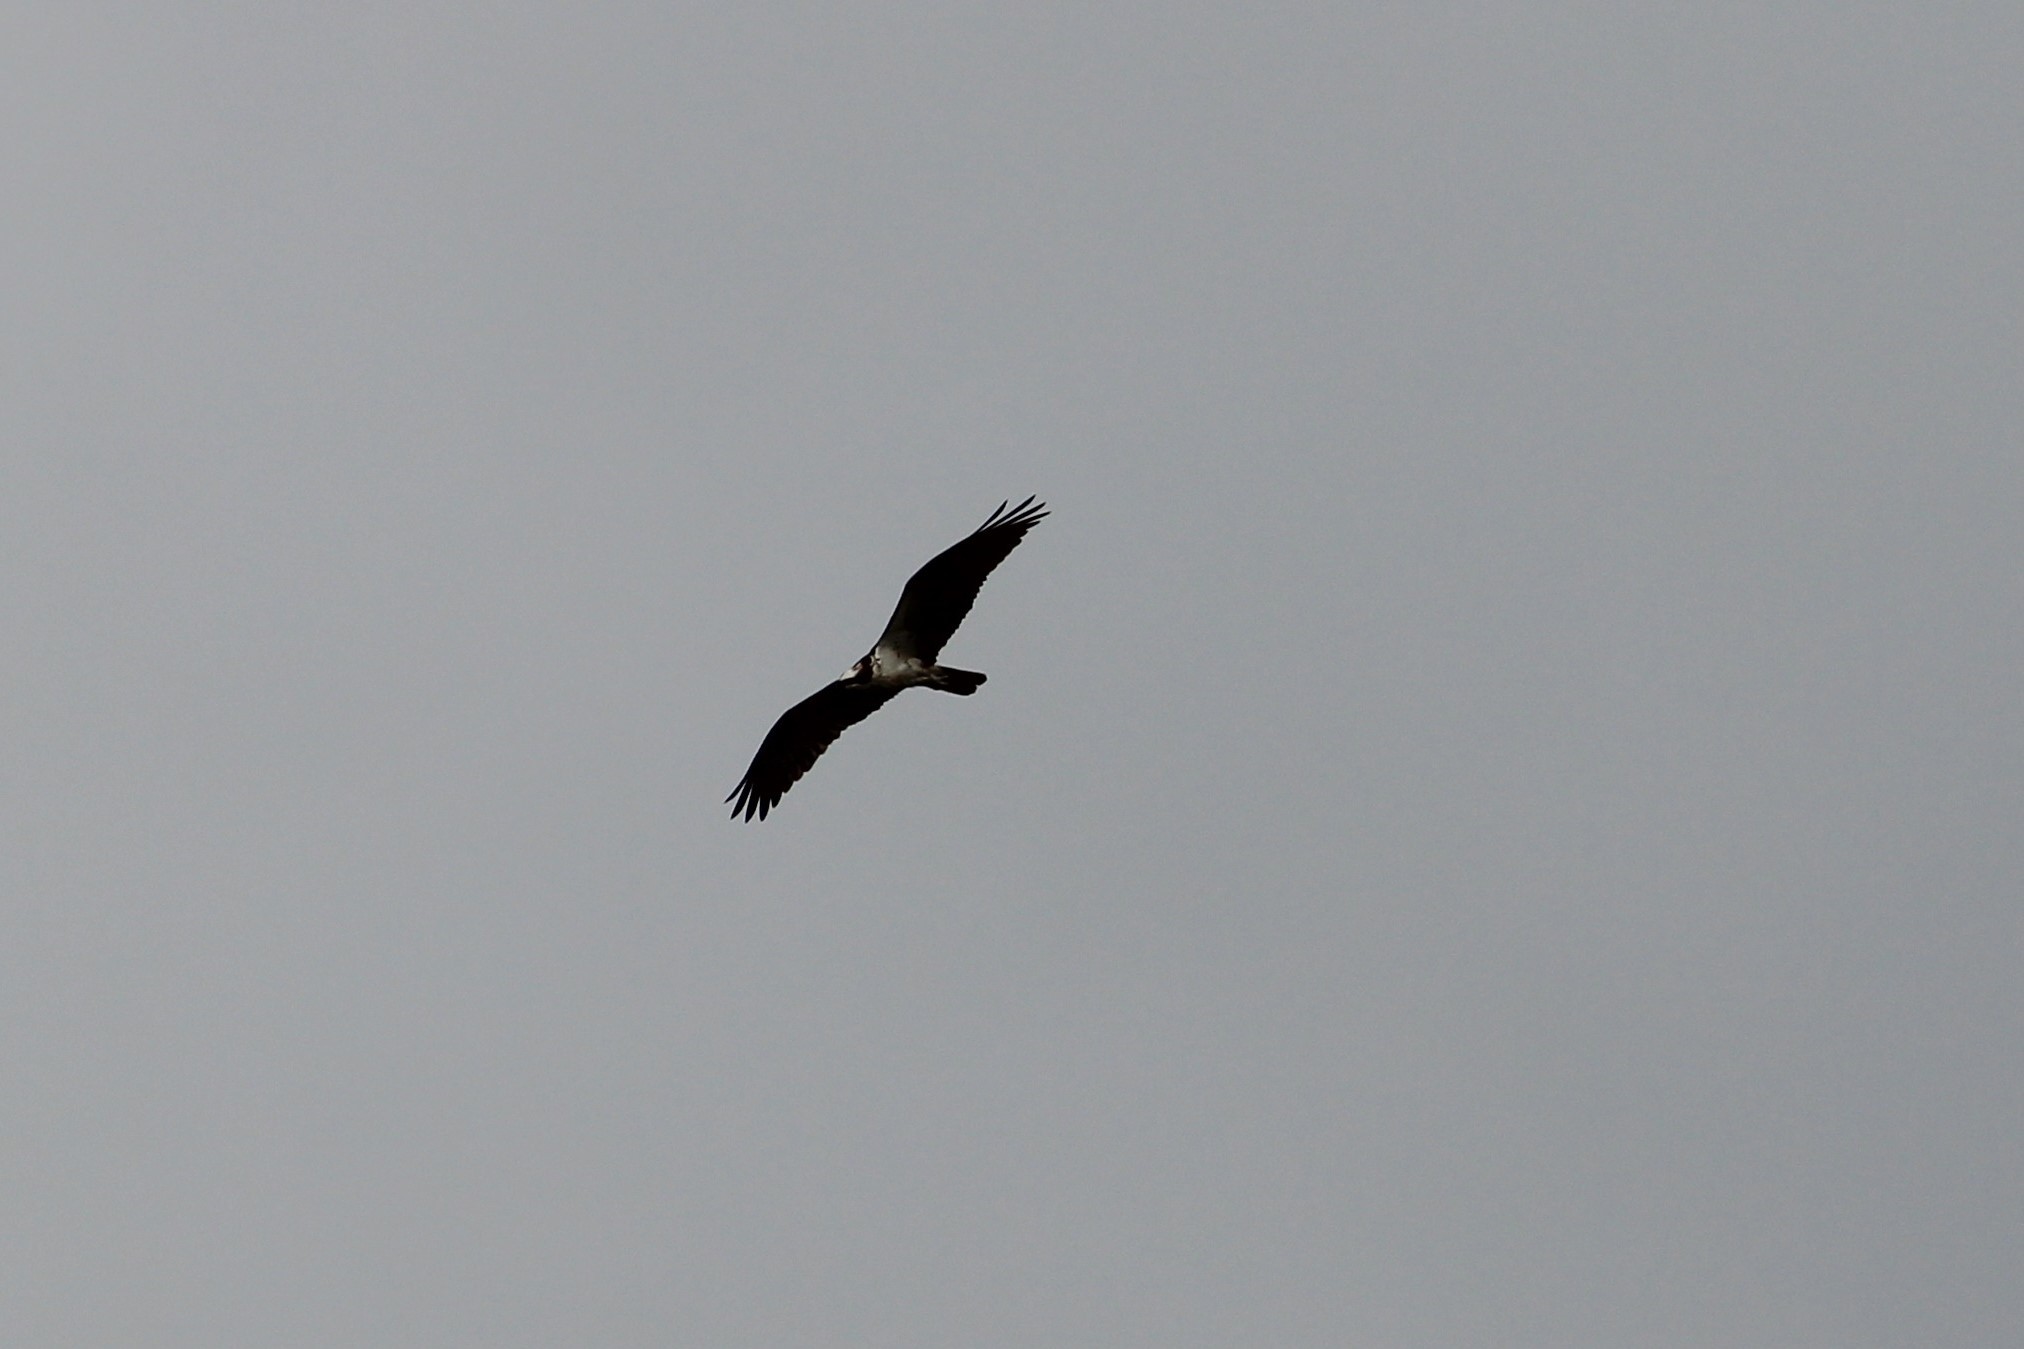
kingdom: Animalia
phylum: Chordata
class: Aves
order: Accipitriformes
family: Accipitridae
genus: Haliaeetus
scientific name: Haliaeetus leucocephalus
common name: Bald eagle
